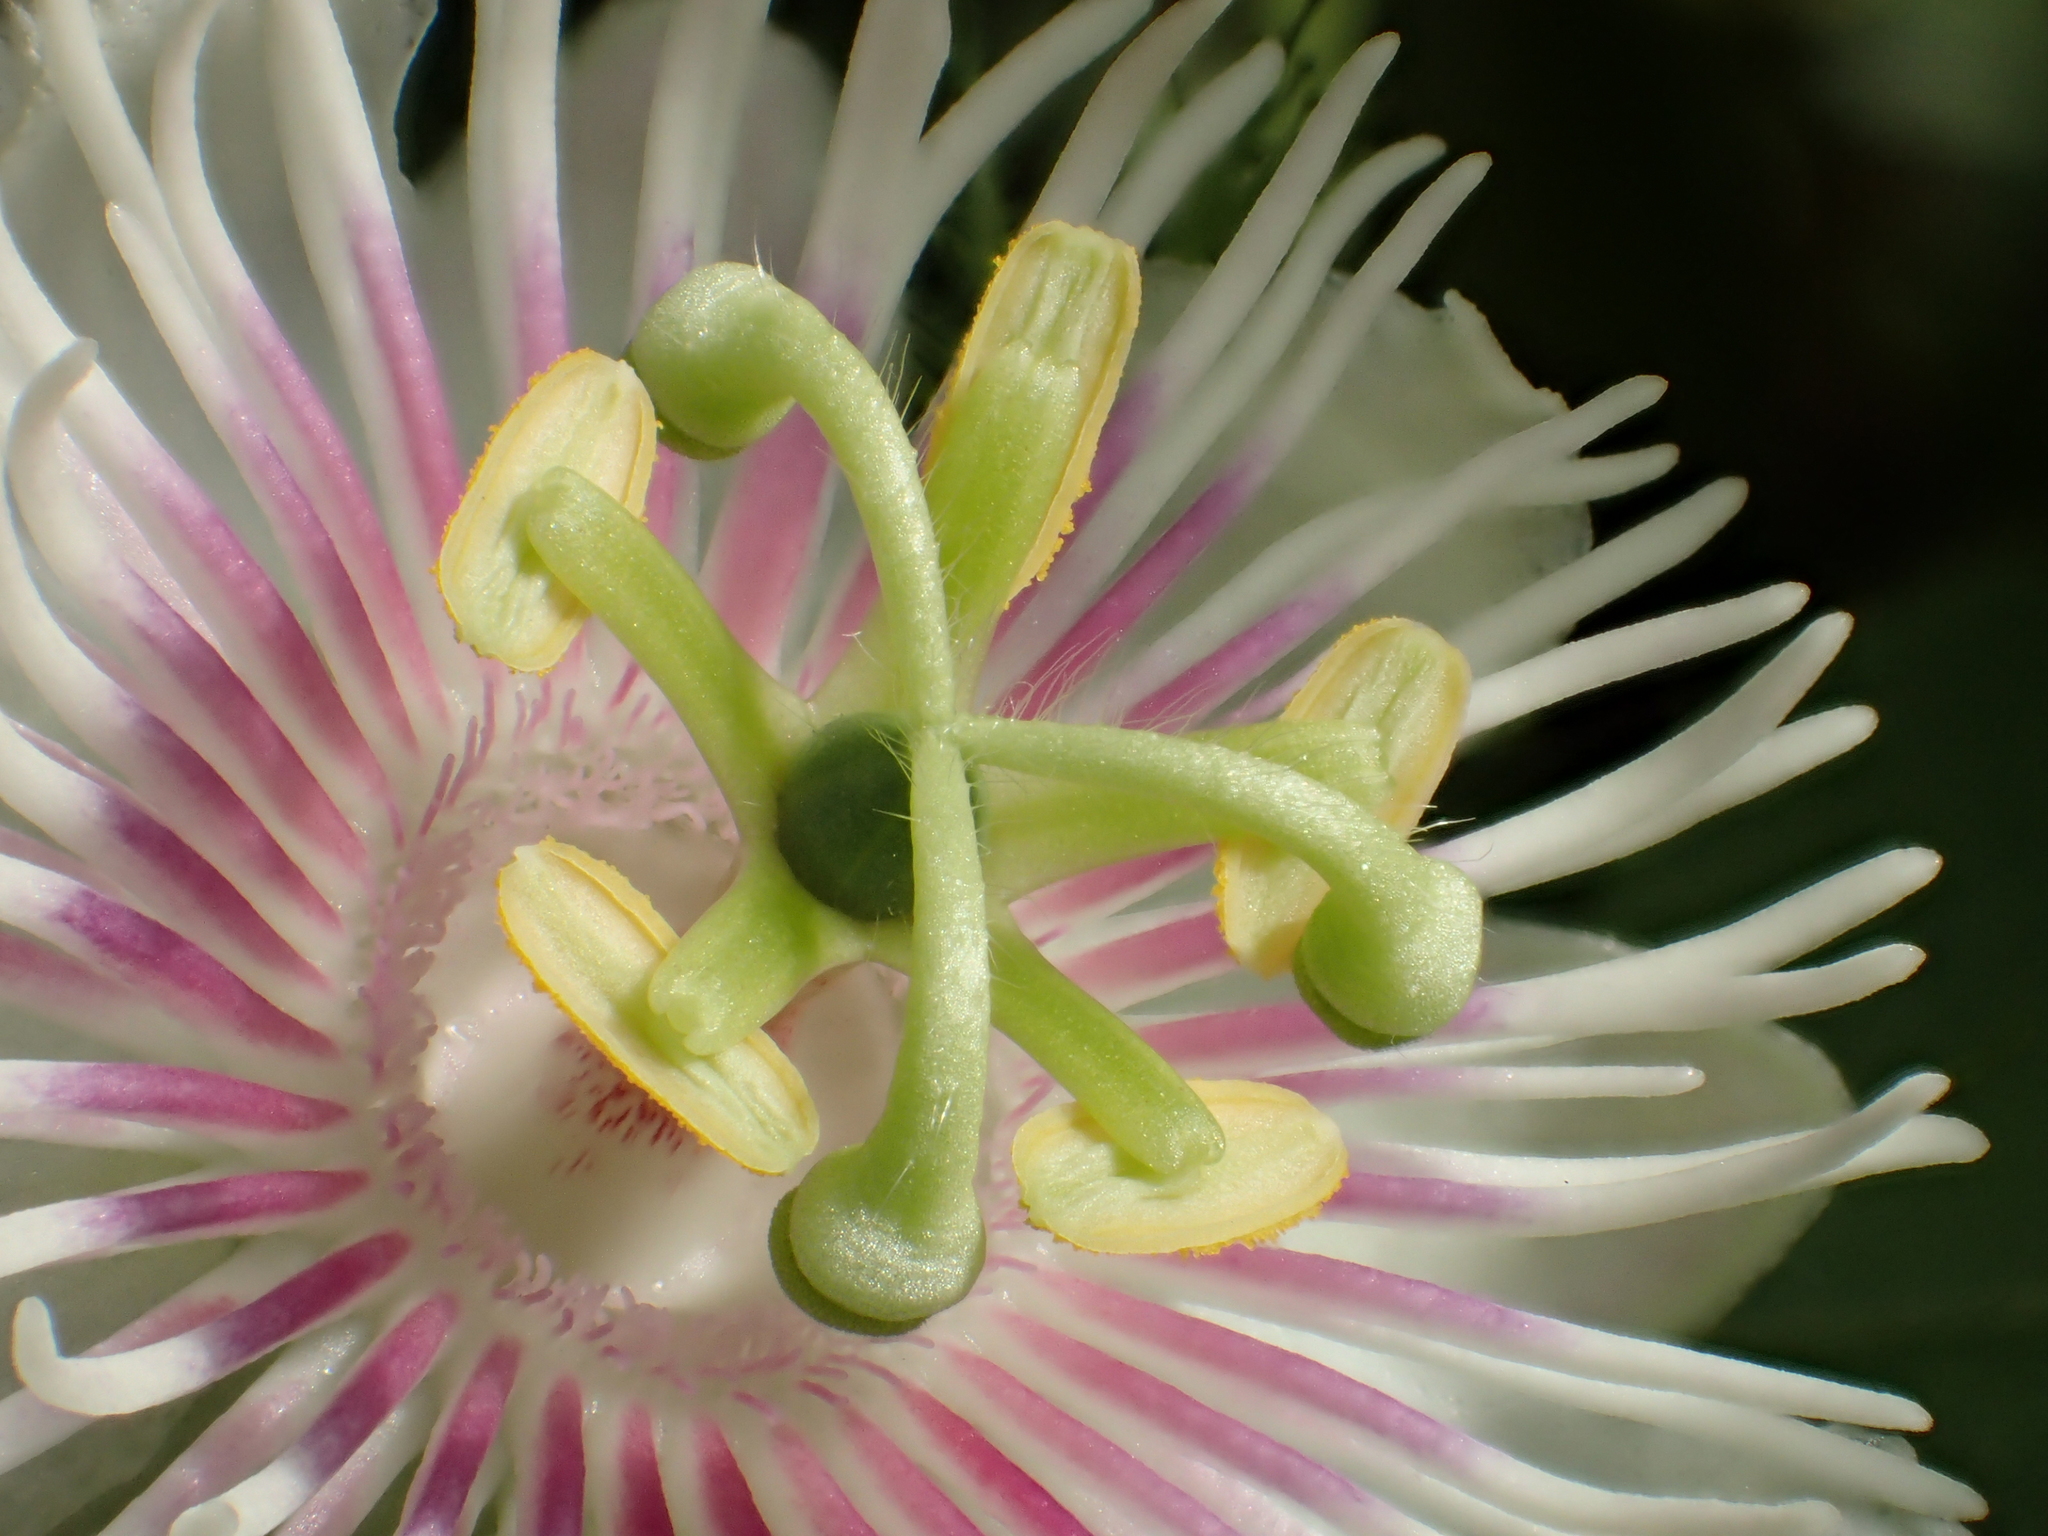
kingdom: Plantae
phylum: Tracheophyta
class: Magnoliopsida
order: Malpighiales
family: Passifloraceae
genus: Passiflora
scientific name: Passiflora vesicaria
